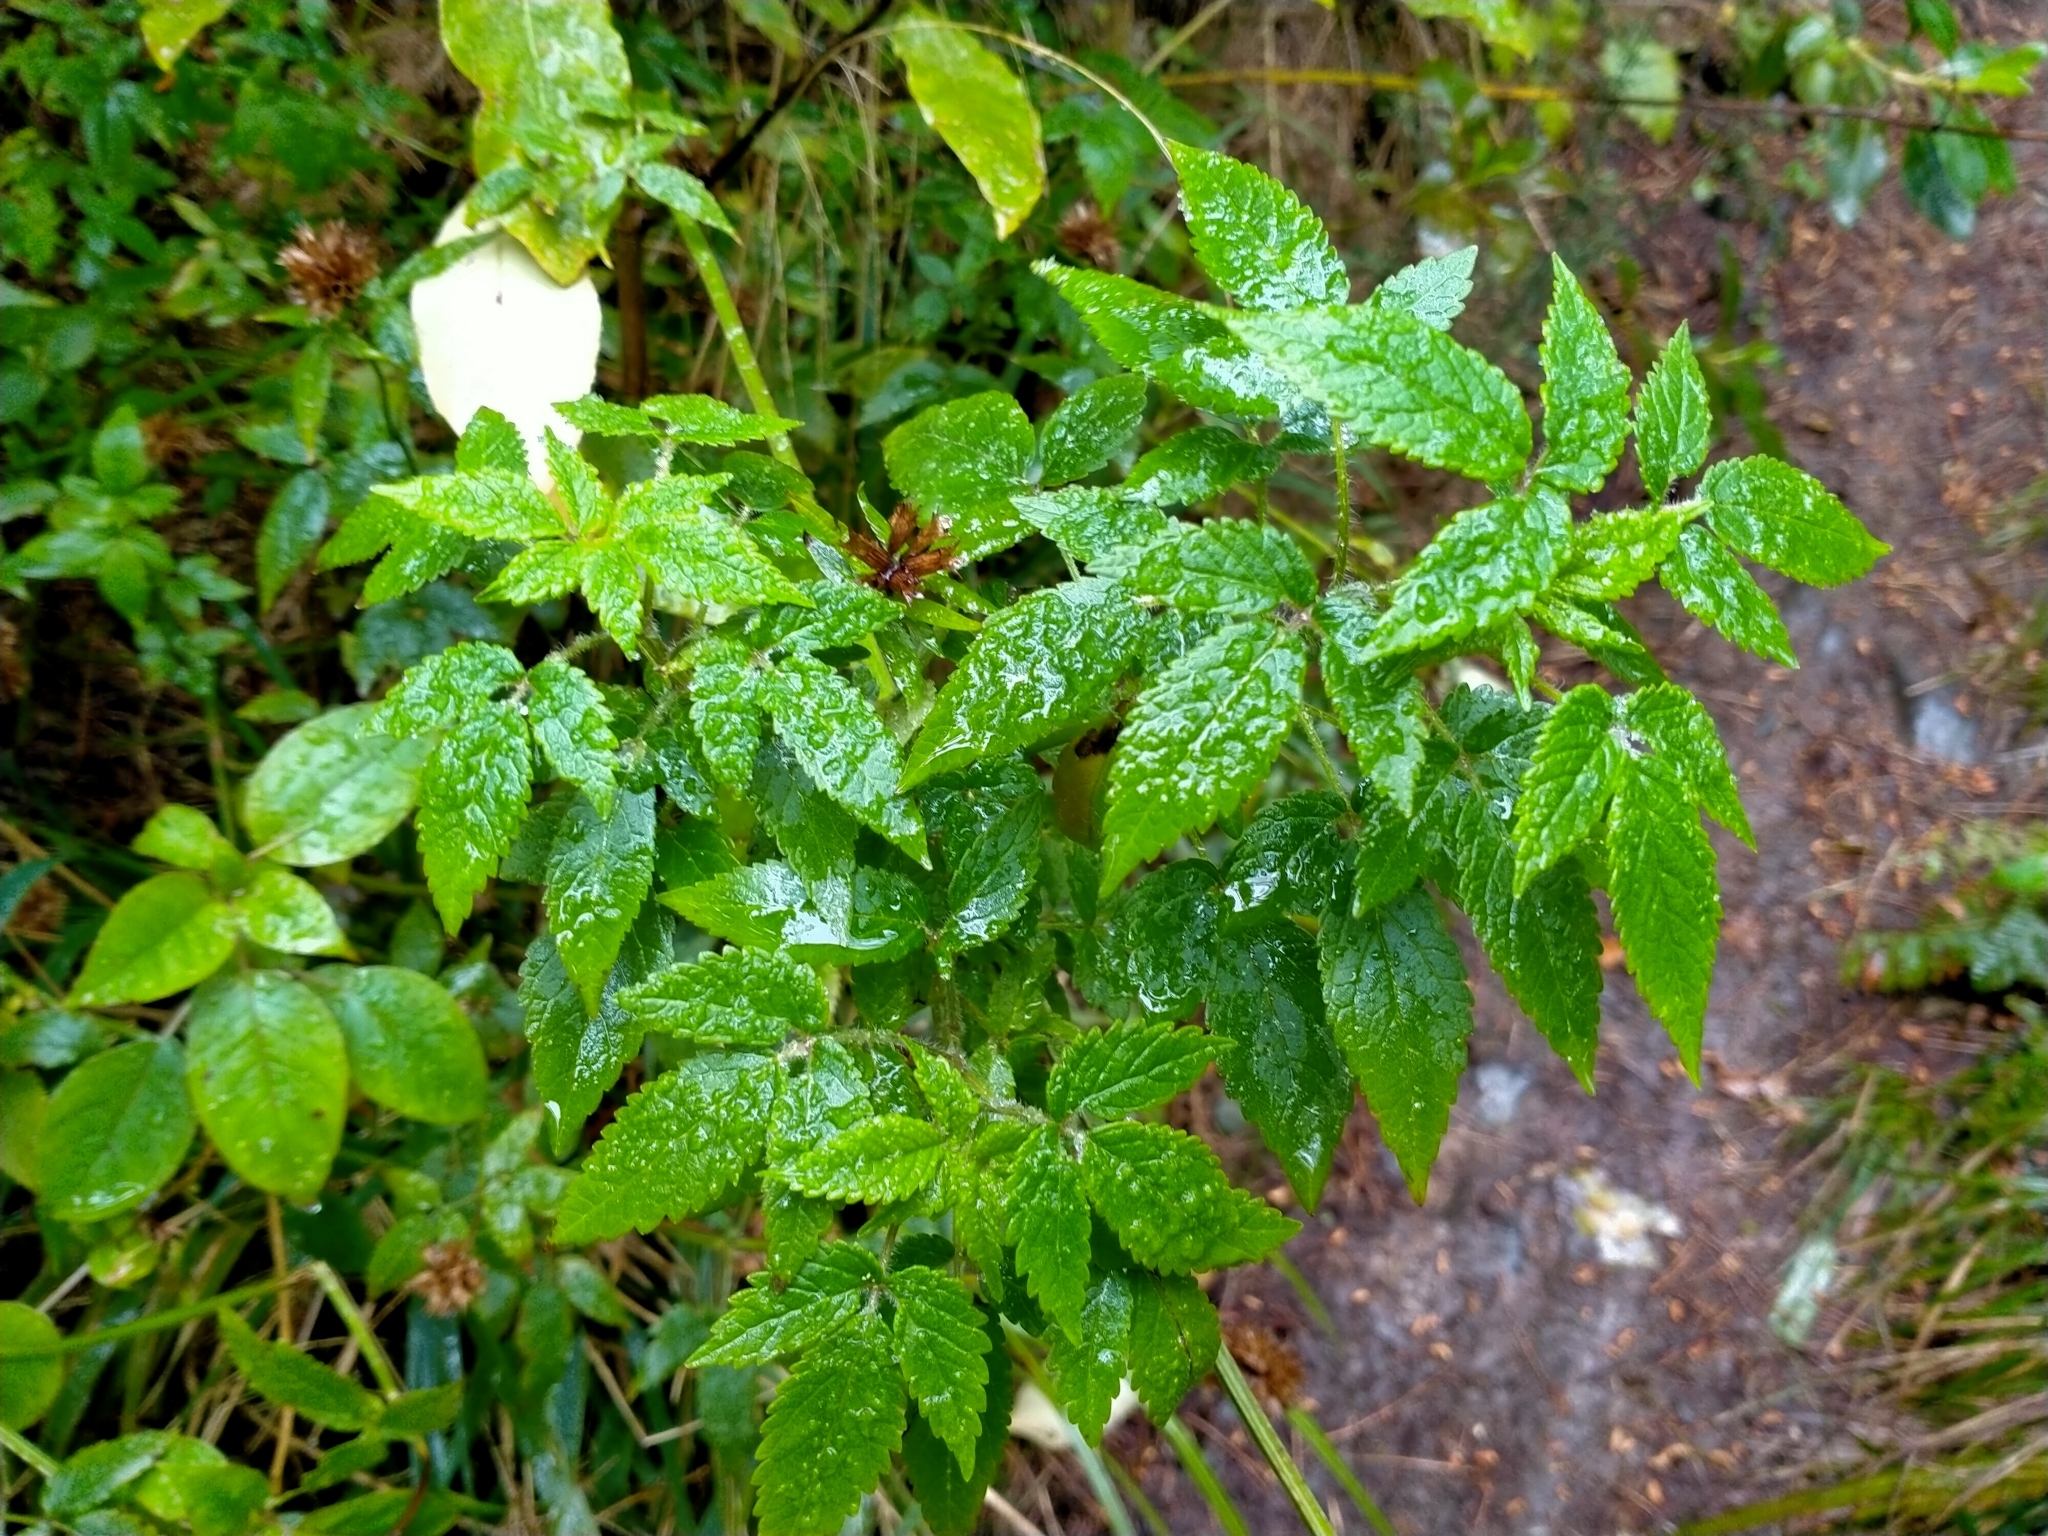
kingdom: Plantae
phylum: Tracheophyta
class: Magnoliopsida
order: Lamiales
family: Lamiaceae
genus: Cedronella
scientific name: Cedronella canariensis
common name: Canary islands balm
